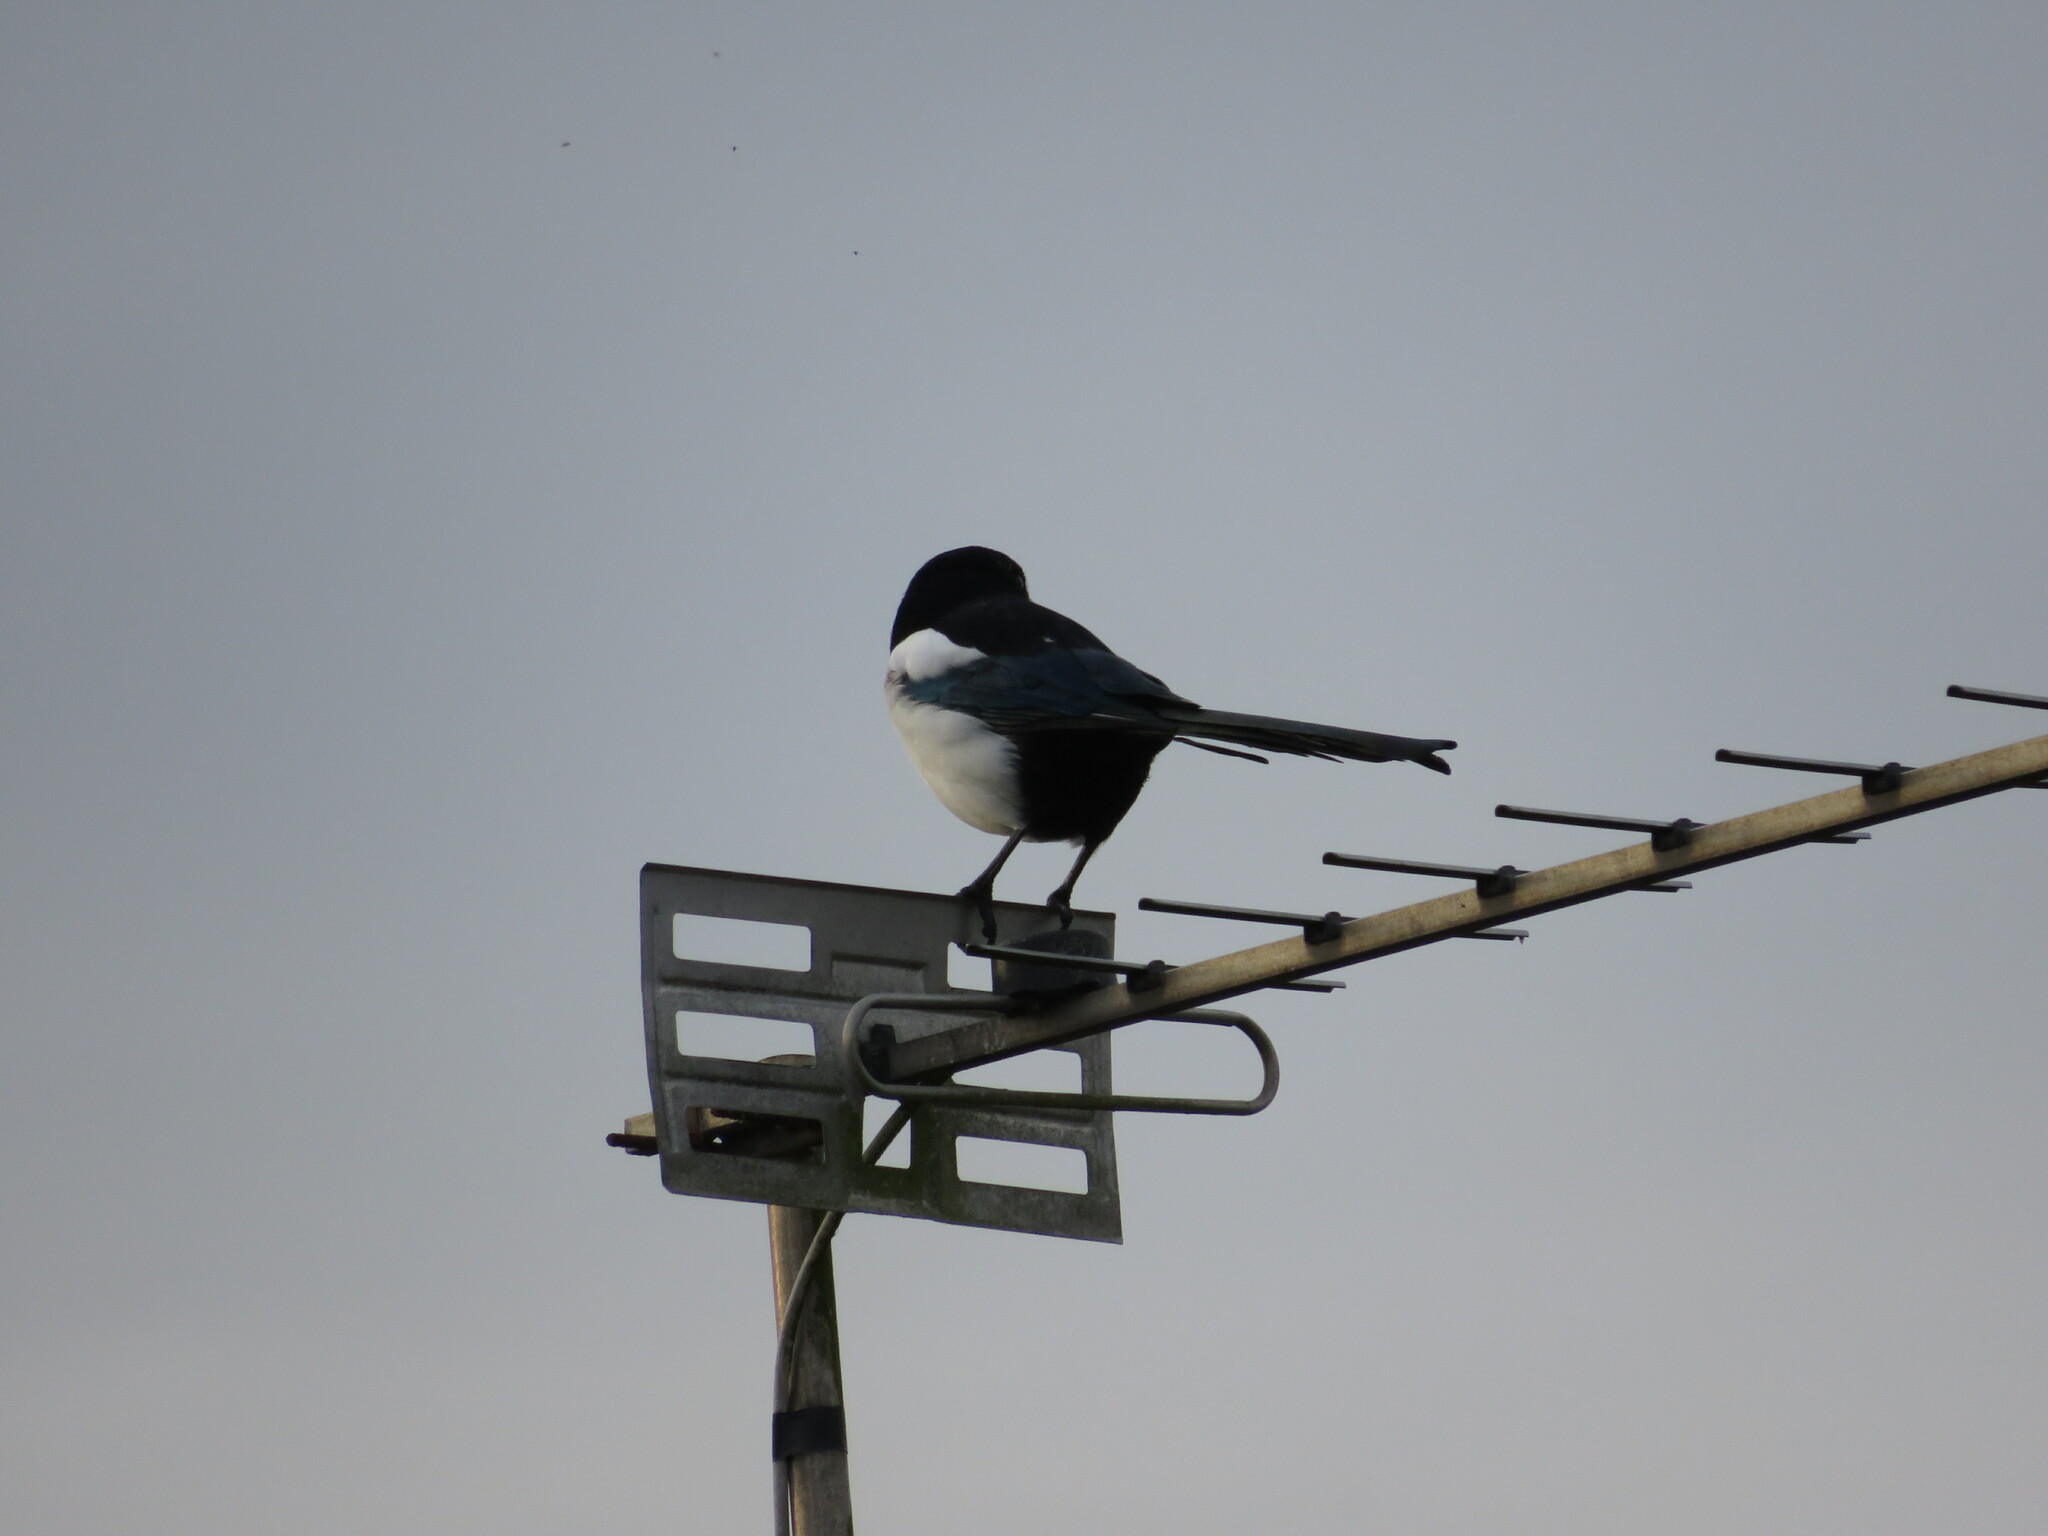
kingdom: Animalia
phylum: Chordata
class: Aves
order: Passeriformes
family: Corvidae
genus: Pica
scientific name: Pica pica
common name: Eurasian magpie
